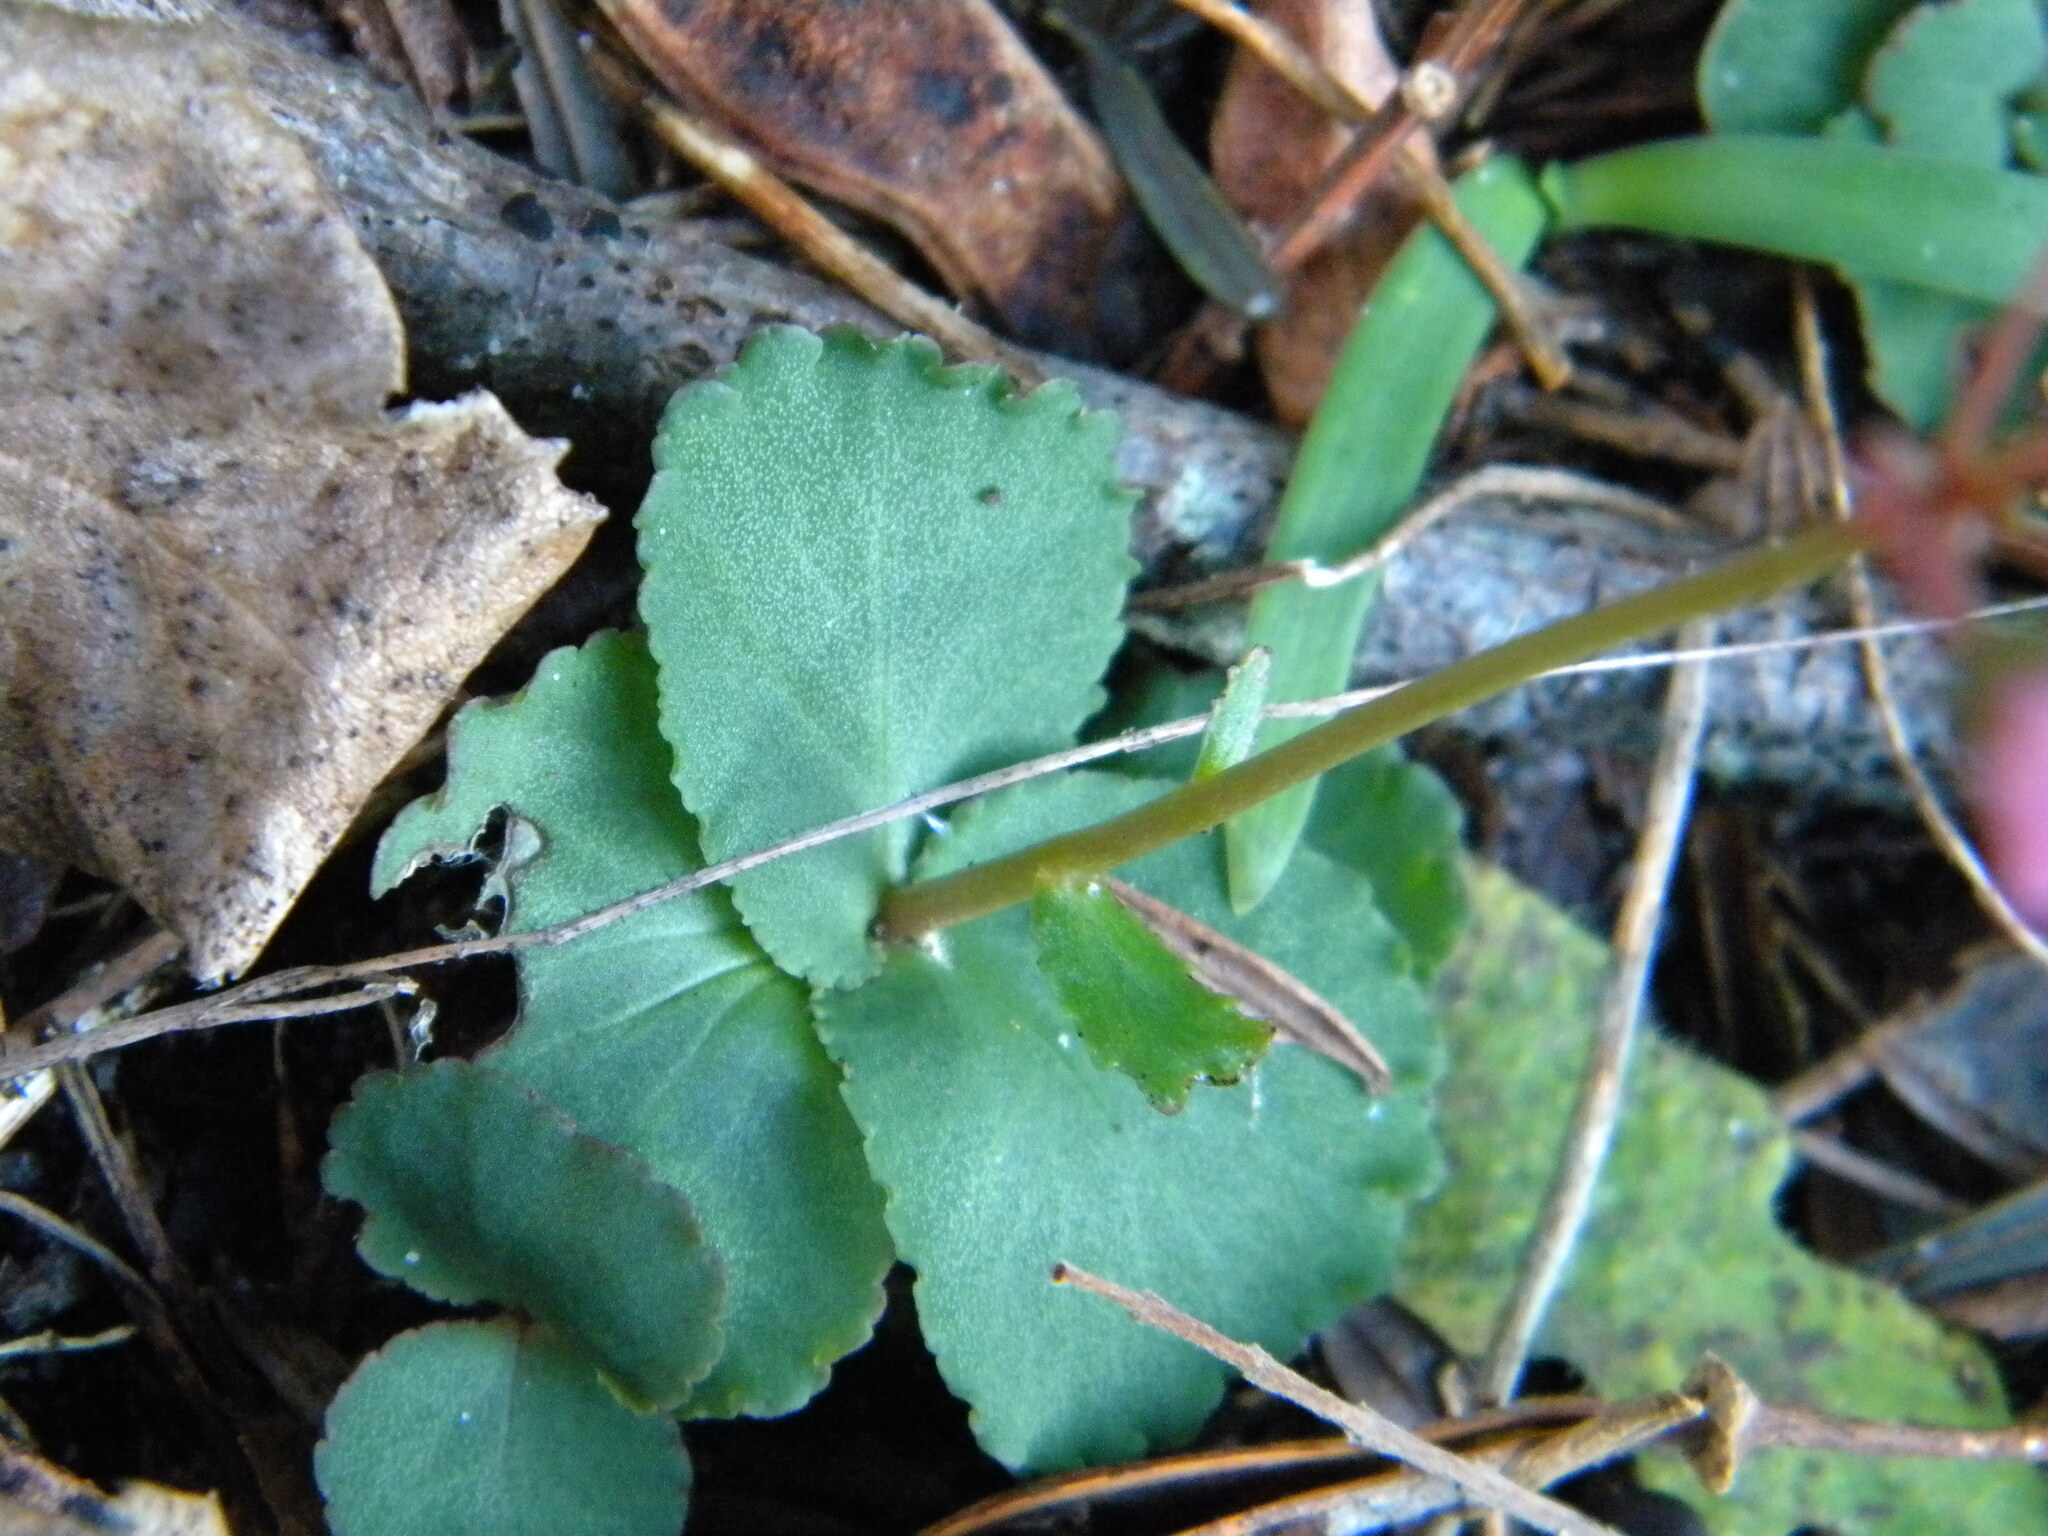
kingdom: Plantae
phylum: Tracheophyta
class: Magnoliopsida
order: Saxifragales
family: Crassulaceae
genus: Crassula
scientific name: Crassula capensis
